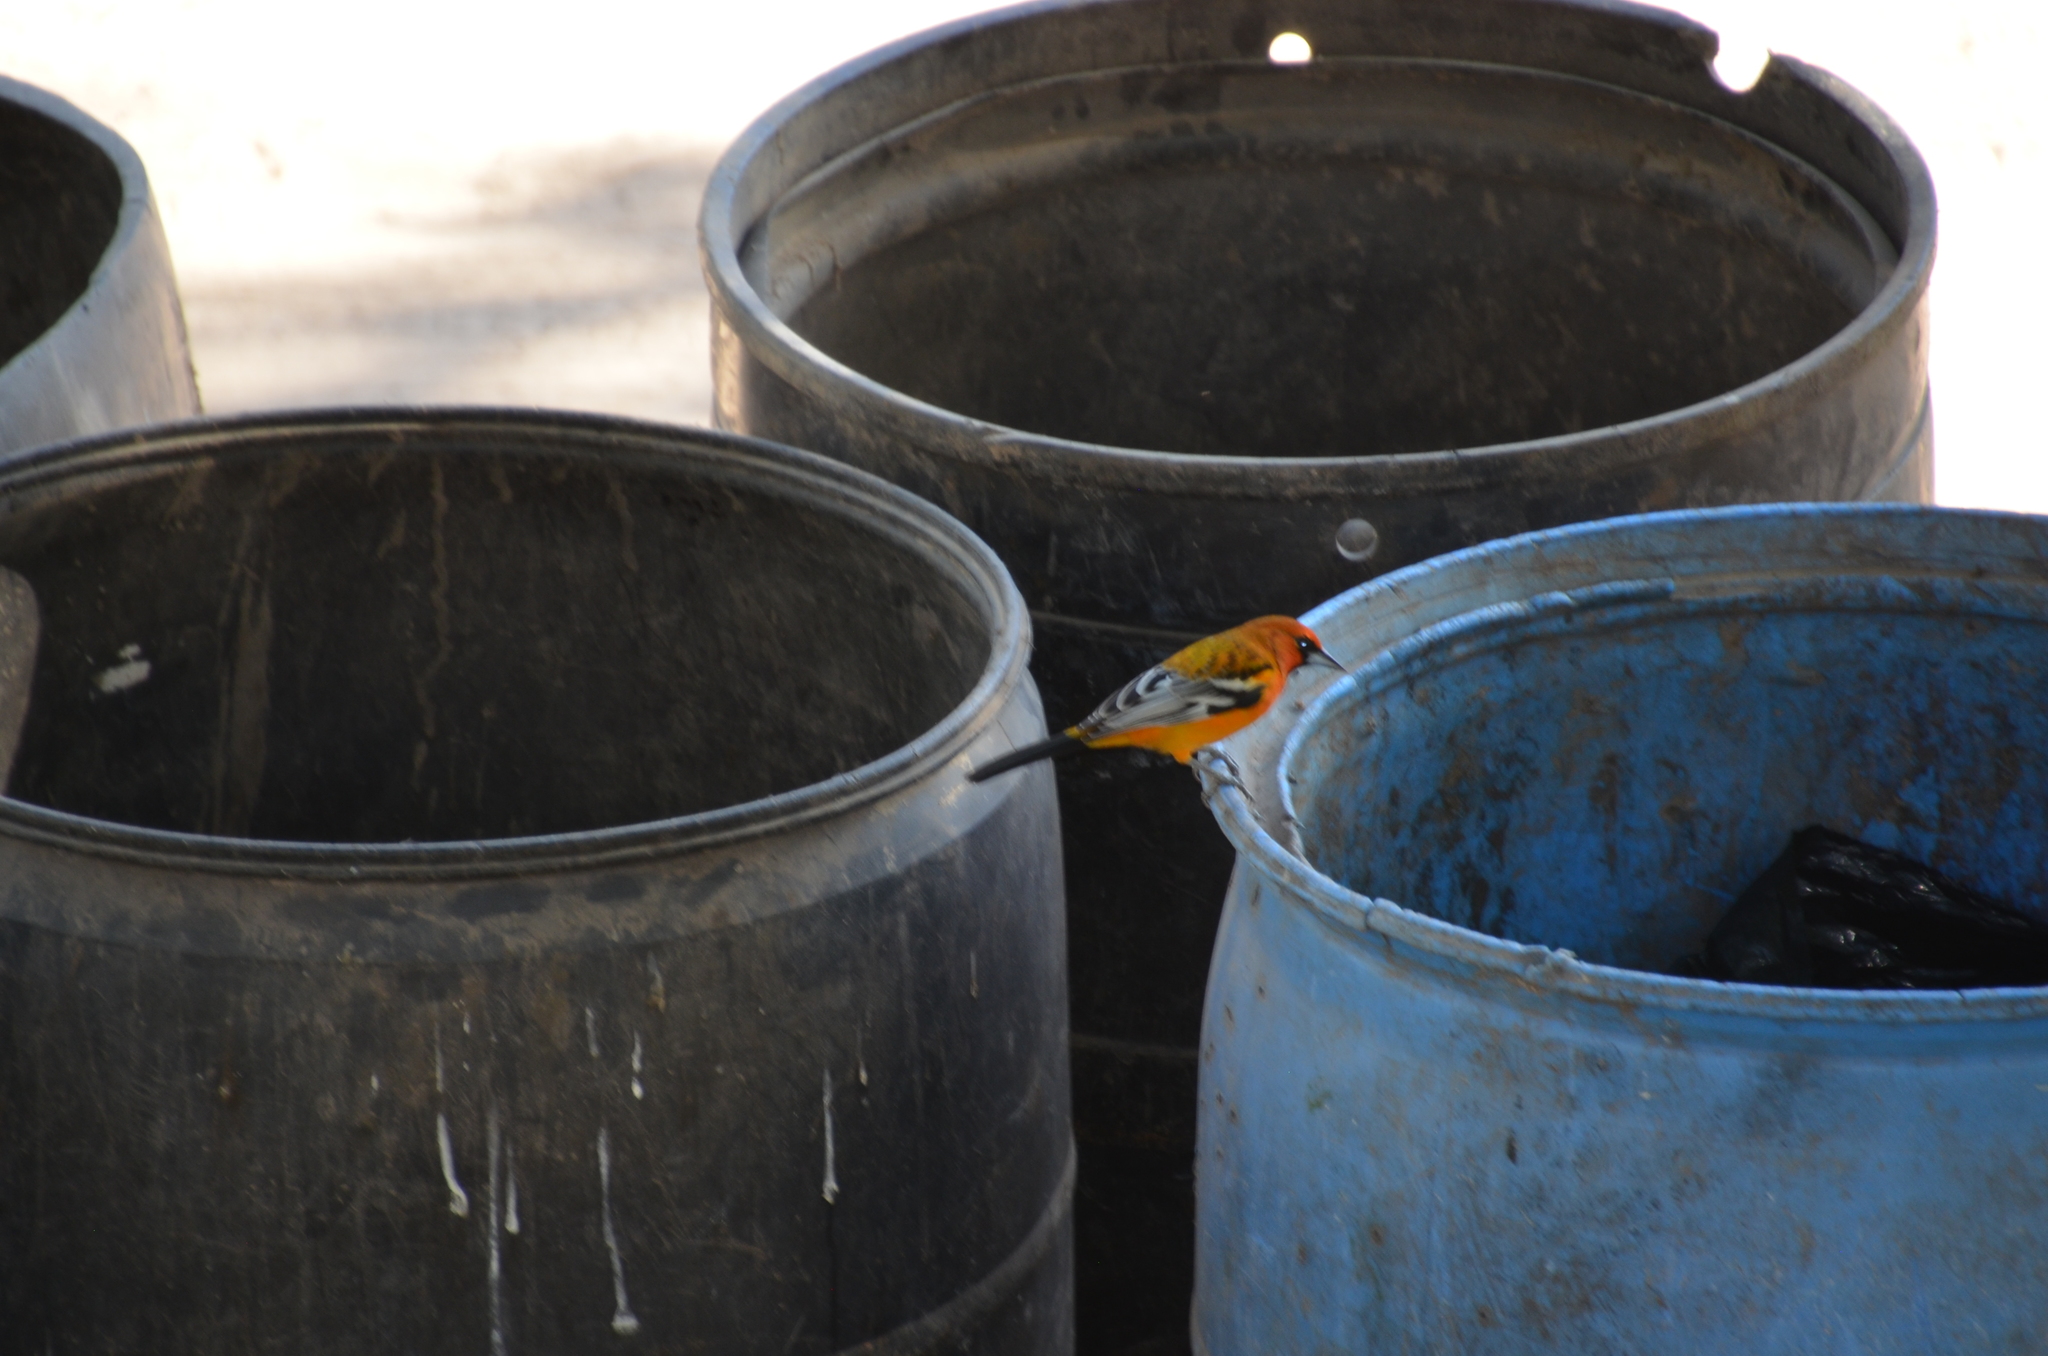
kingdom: Animalia
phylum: Chordata
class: Aves
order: Passeriformes
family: Icteridae
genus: Icterus
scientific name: Icterus pustulatus
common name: Streak-backed oriole
